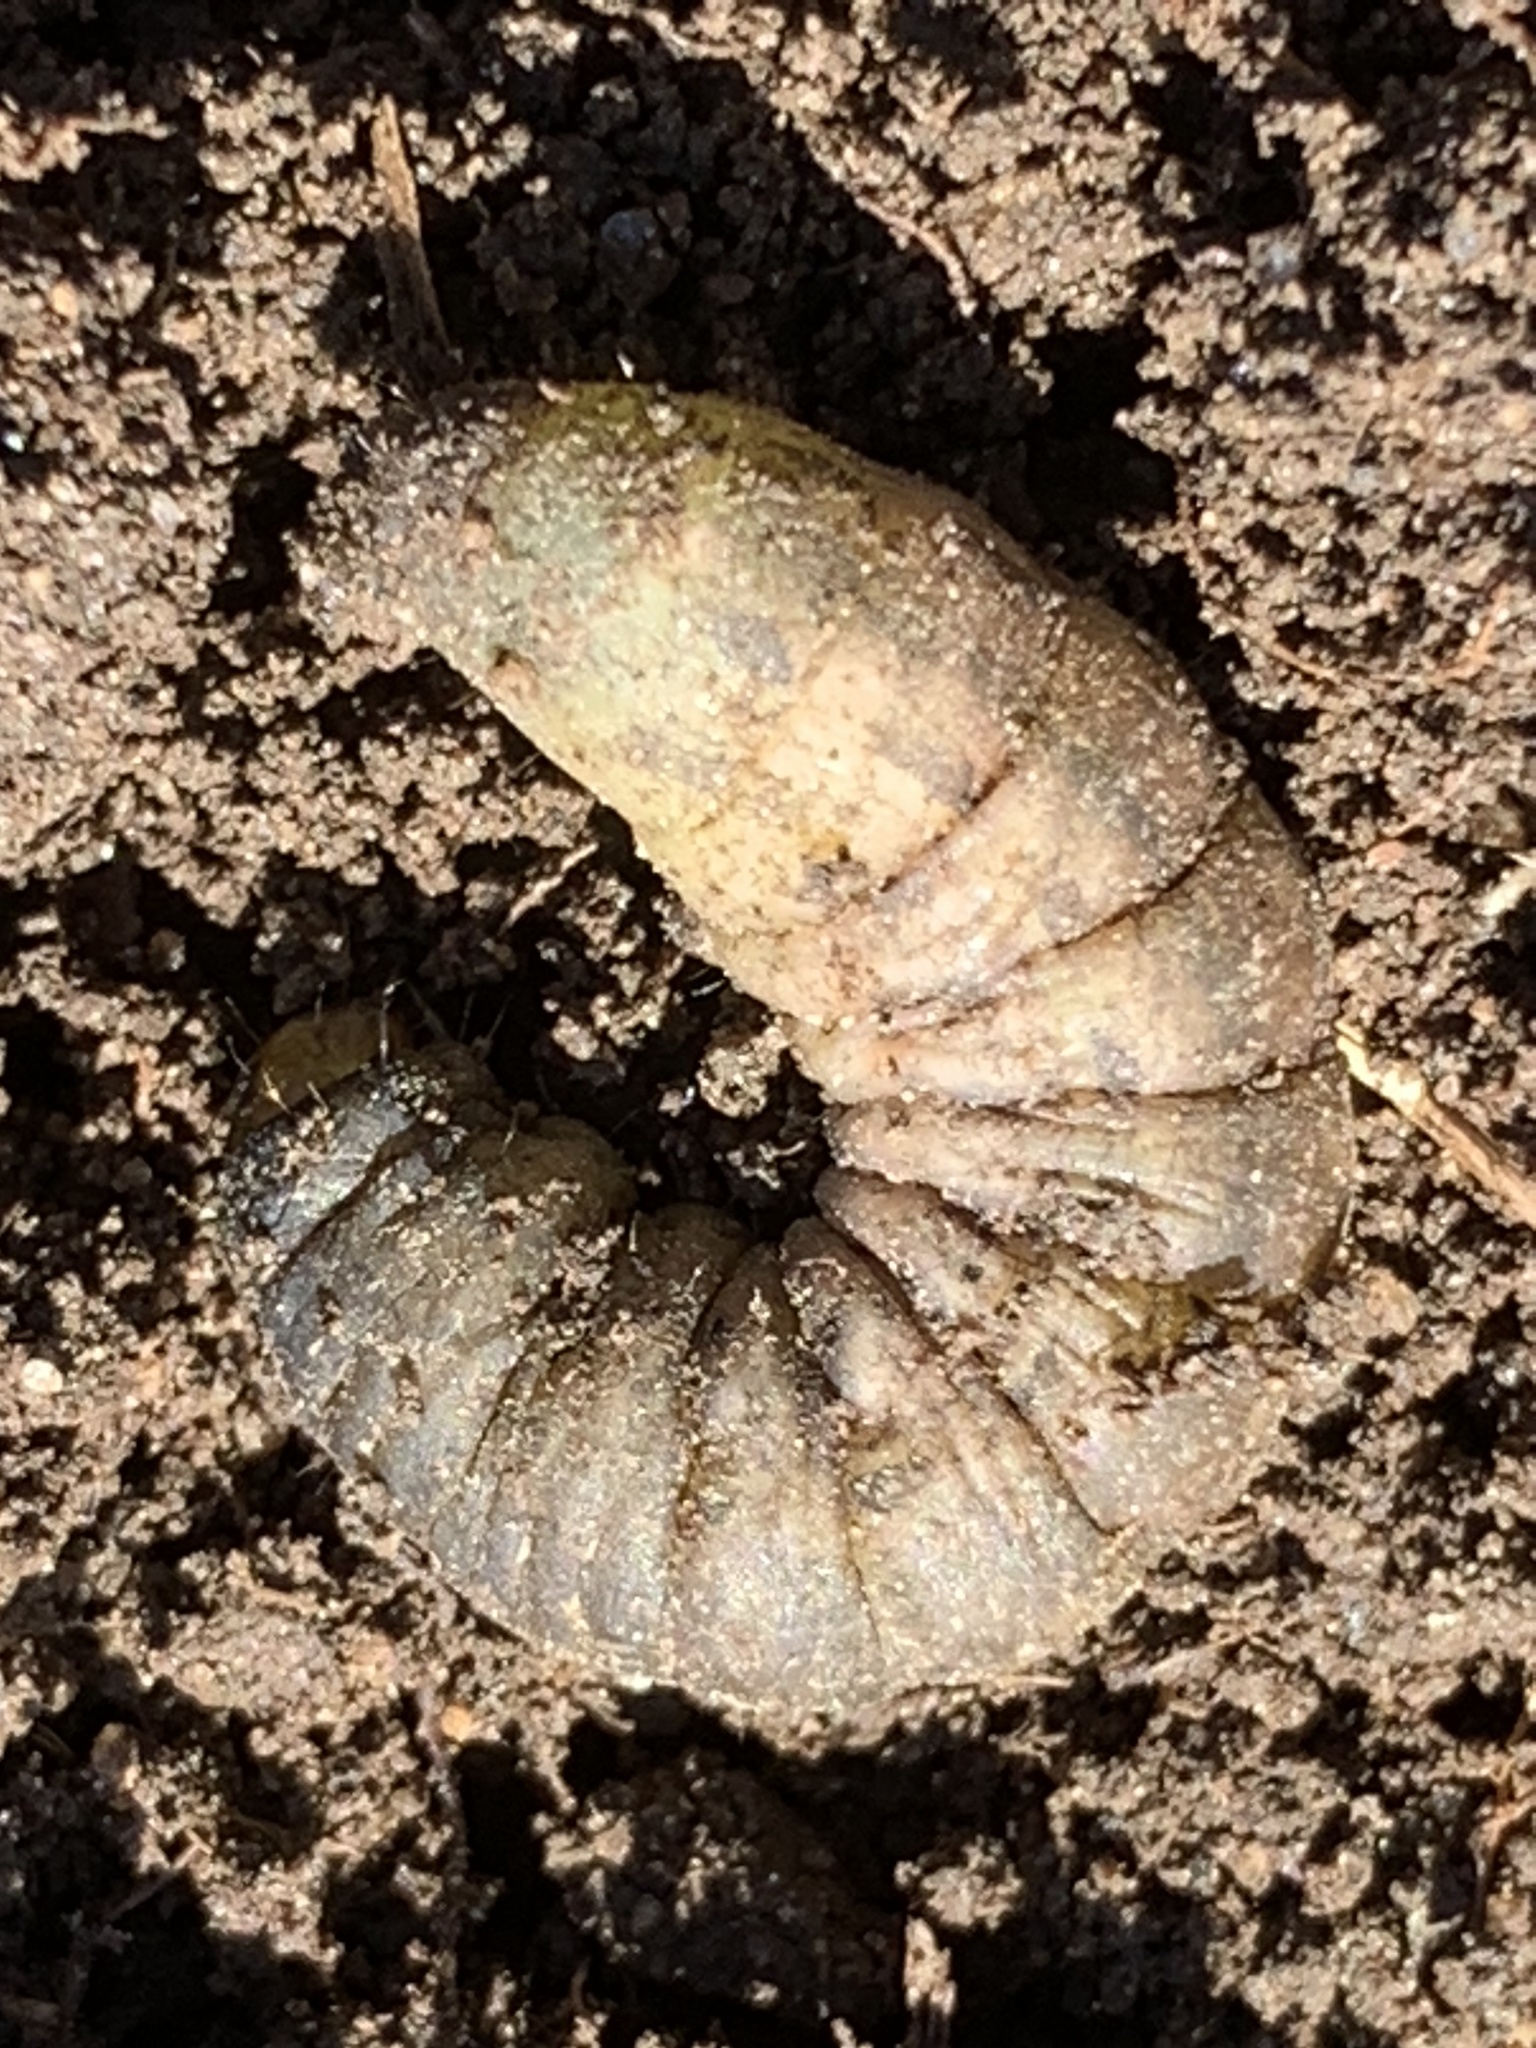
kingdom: Animalia
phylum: Arthropoda
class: Insecta
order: Lepidoptera
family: Noctuidae
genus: Noctua
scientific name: Noctua pronuba
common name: Large yellow underwing
